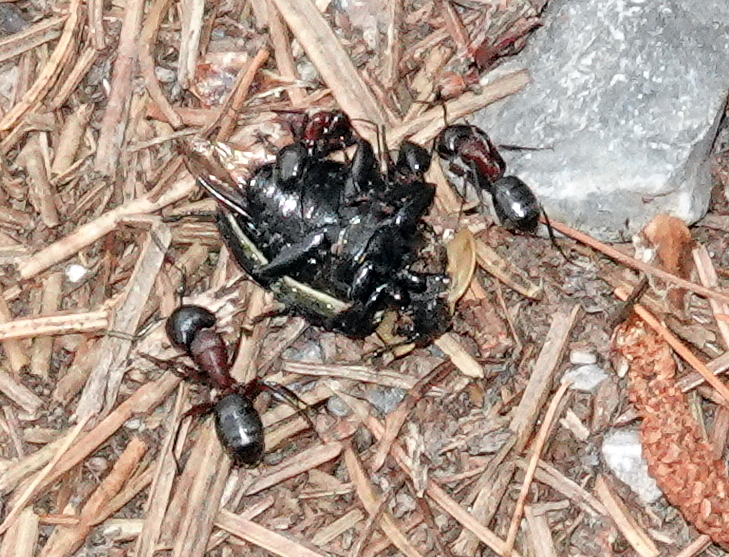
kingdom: Animalia
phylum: Arthropoda
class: Insecta
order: Hymenoptera
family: Formicidae
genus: Camponotus
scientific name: Camponotus novaeboracensis
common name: New york carpenter ant
